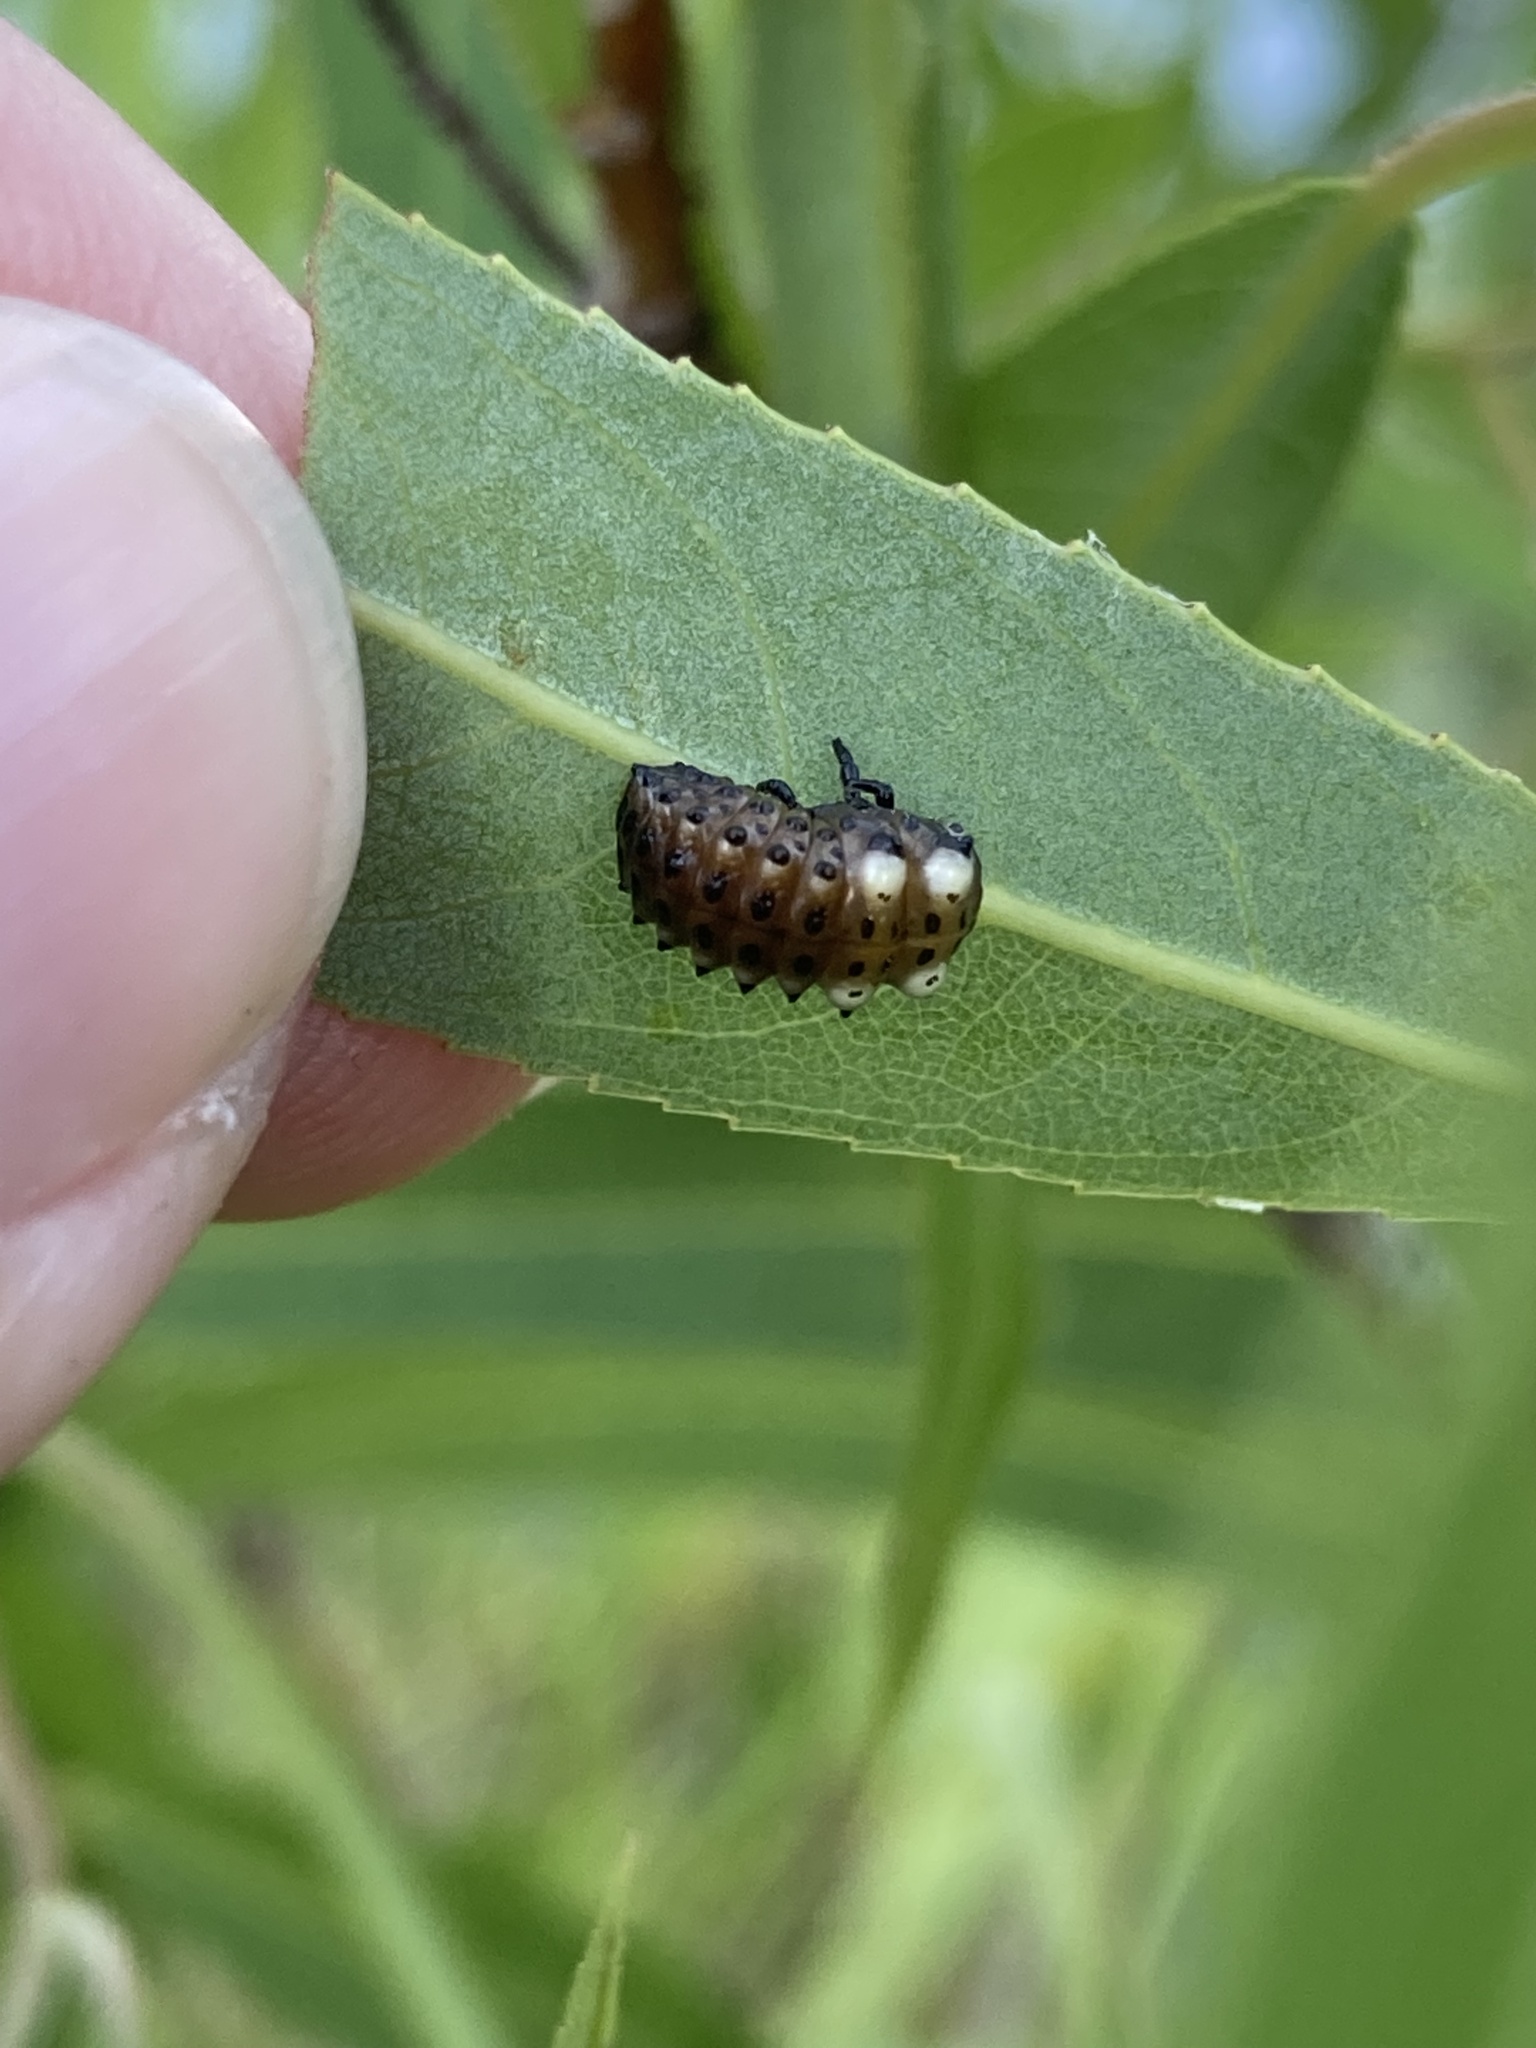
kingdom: Animalia
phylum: Arthropoda
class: Insecta
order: Coleoptera
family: Chrysomelidae
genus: Aethiopocassis
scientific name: Aethiopocassis scripta
